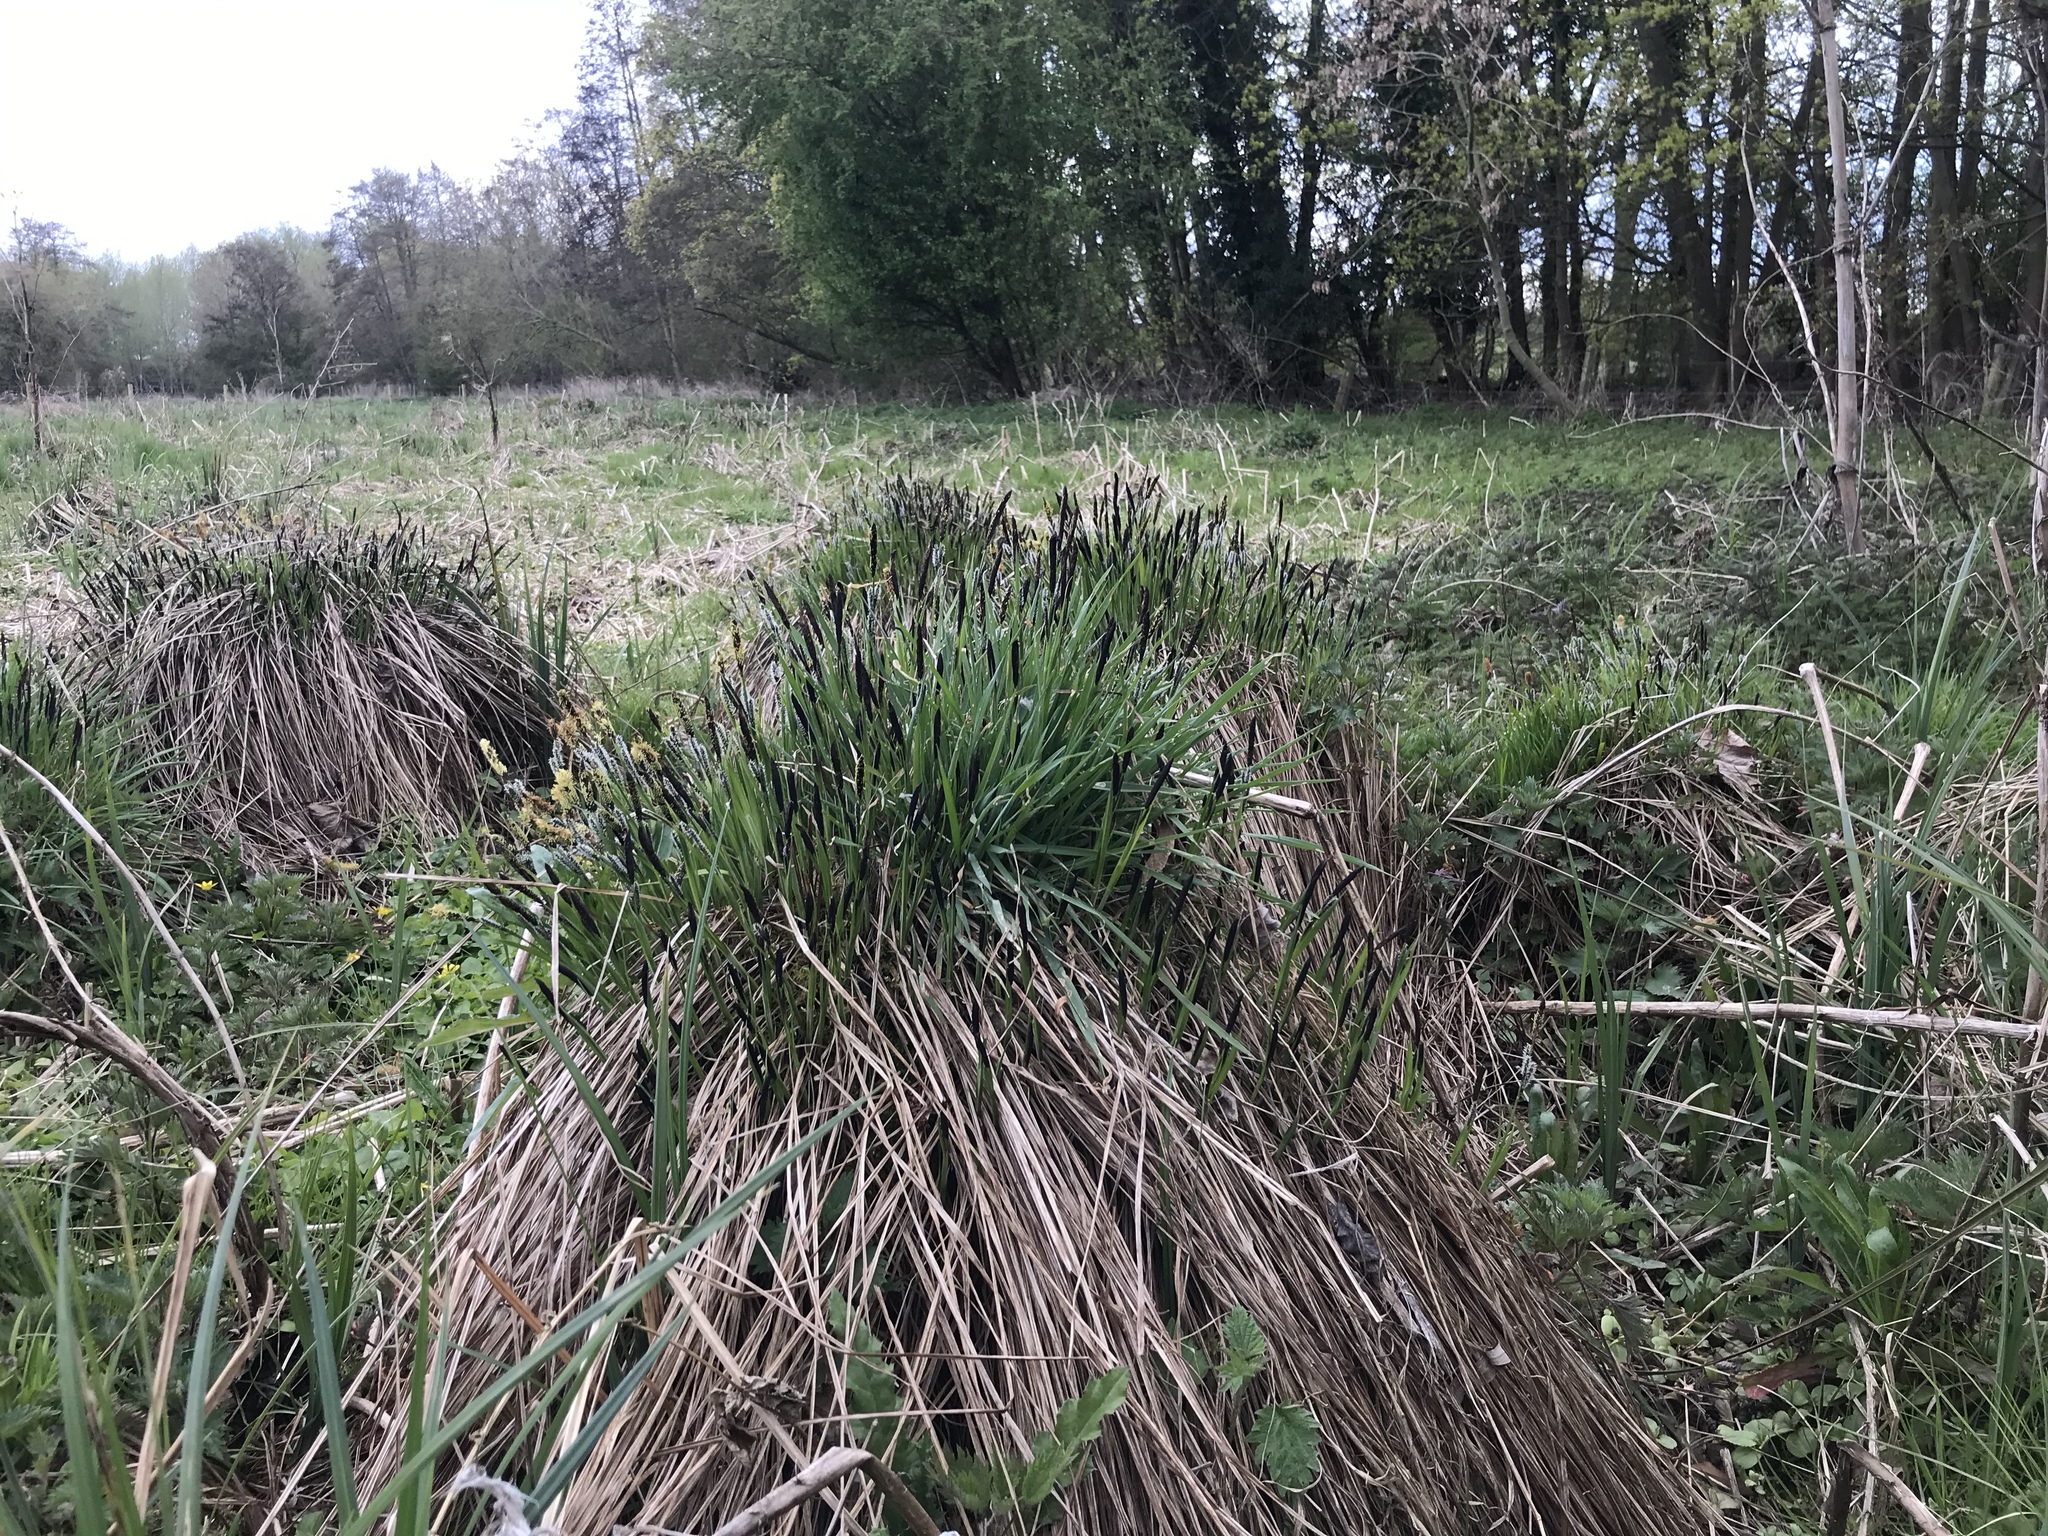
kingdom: Plantae
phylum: Tracheophyta
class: Liliopsida
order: Poales
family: Cyperaceae
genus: Carex
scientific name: Carex cespitosa
